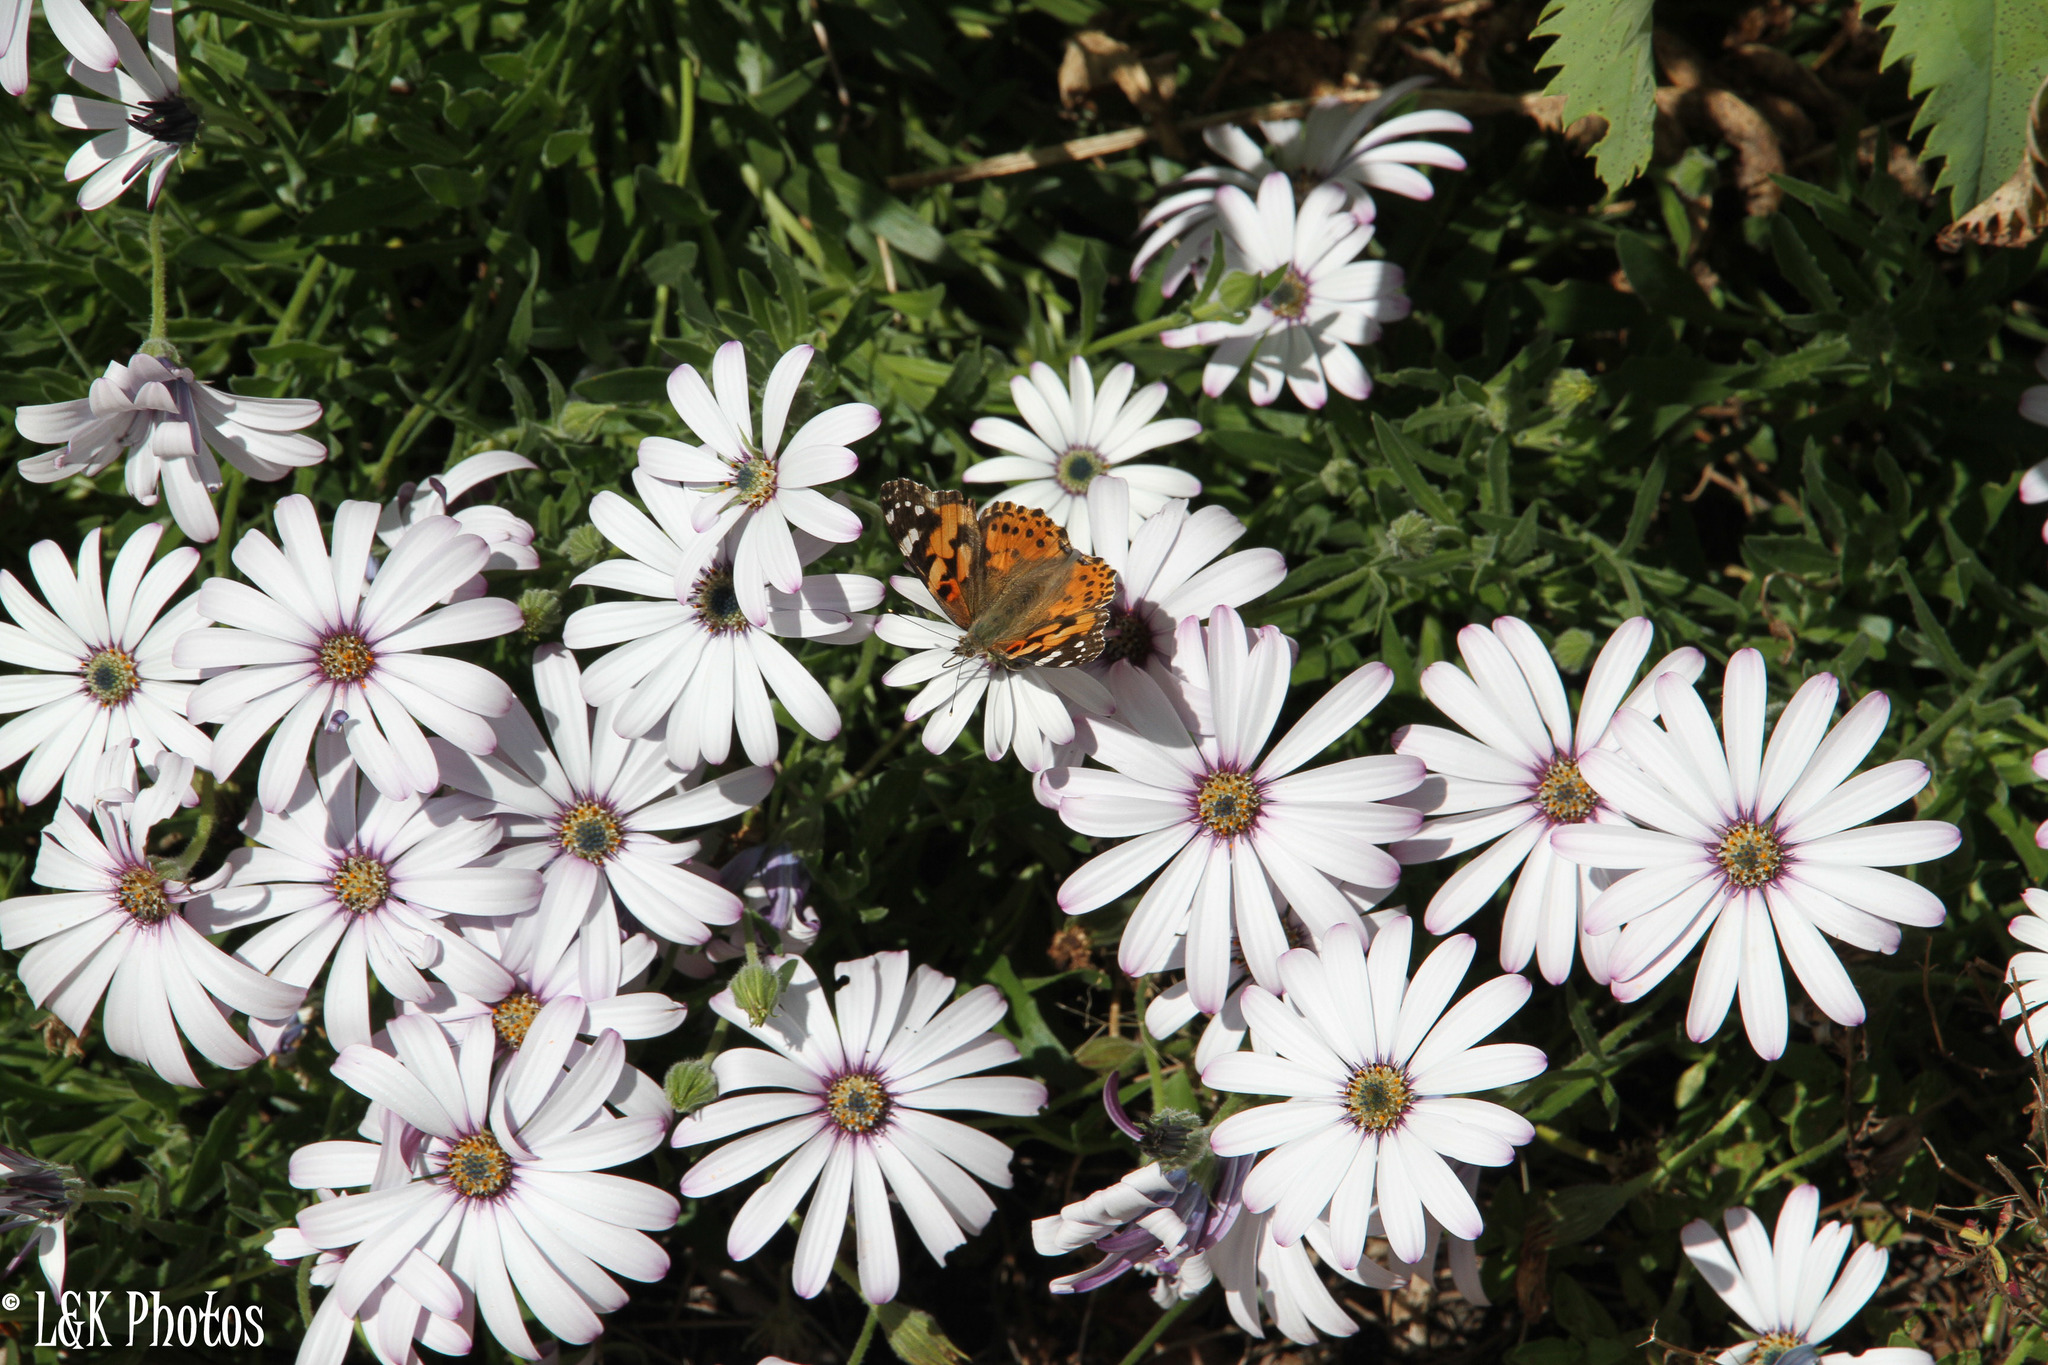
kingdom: Animalia
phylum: Arthropoda
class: Insecta
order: Lepidoptera
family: Nymphalidae
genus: Vanessa
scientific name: Vanessa cardui
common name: Painted lady
